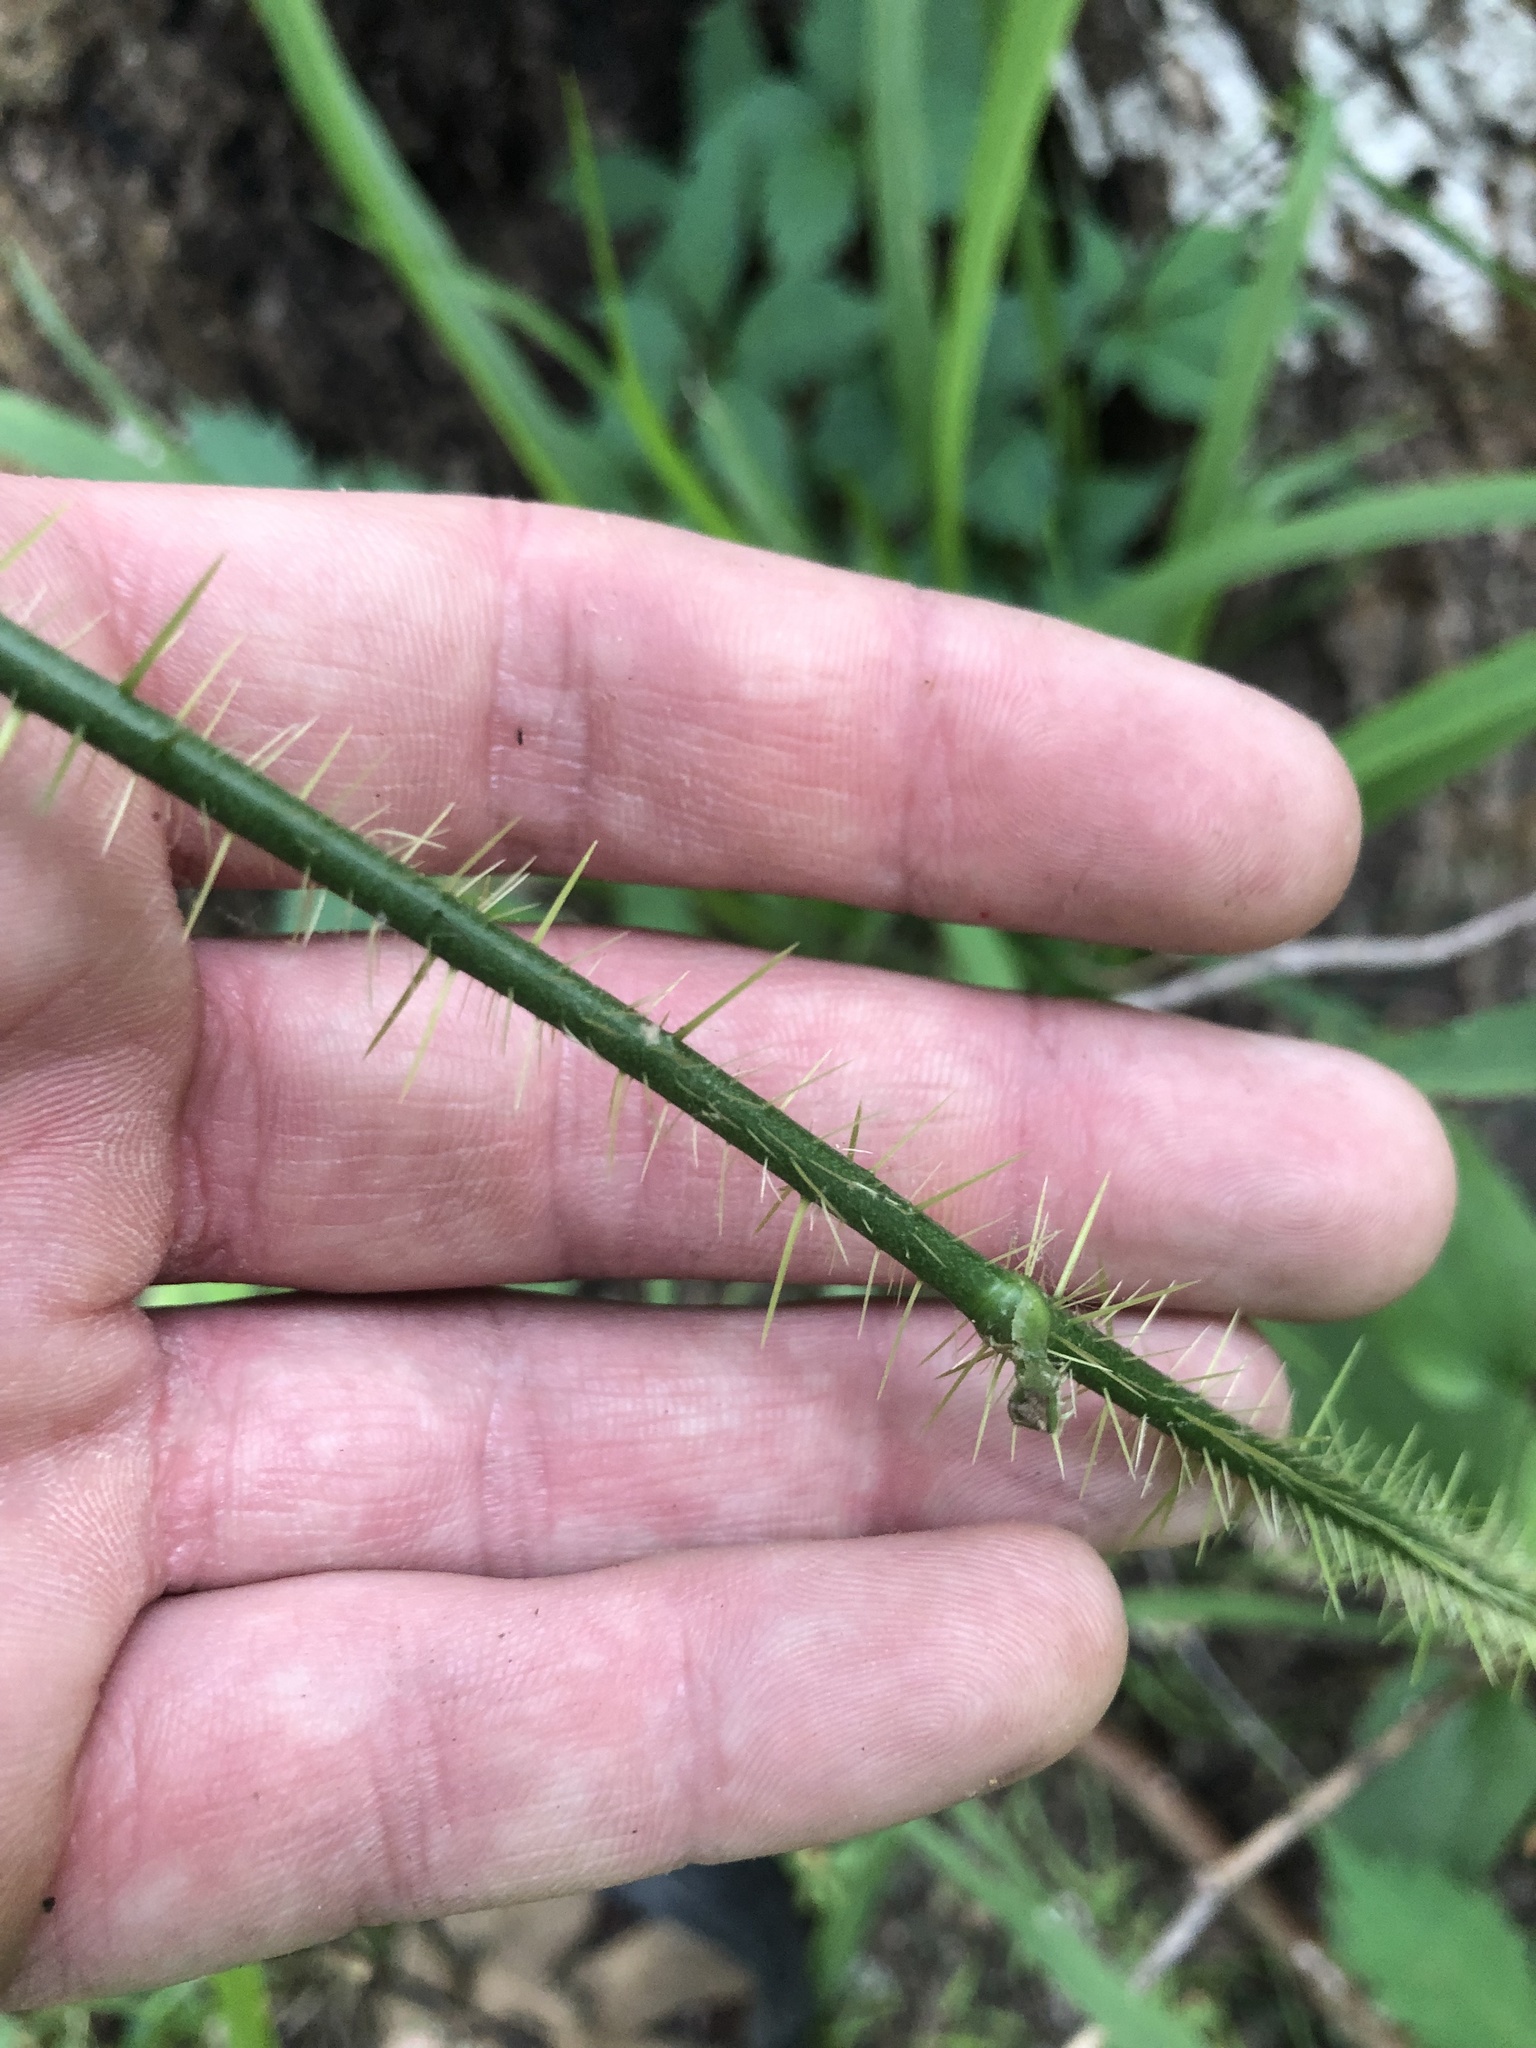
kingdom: Plantae
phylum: Tracheophyta
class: Liliopsida
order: Liliales
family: Smilacaceae
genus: Smilax
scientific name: Smilax tamnoides
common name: Hellfetter
